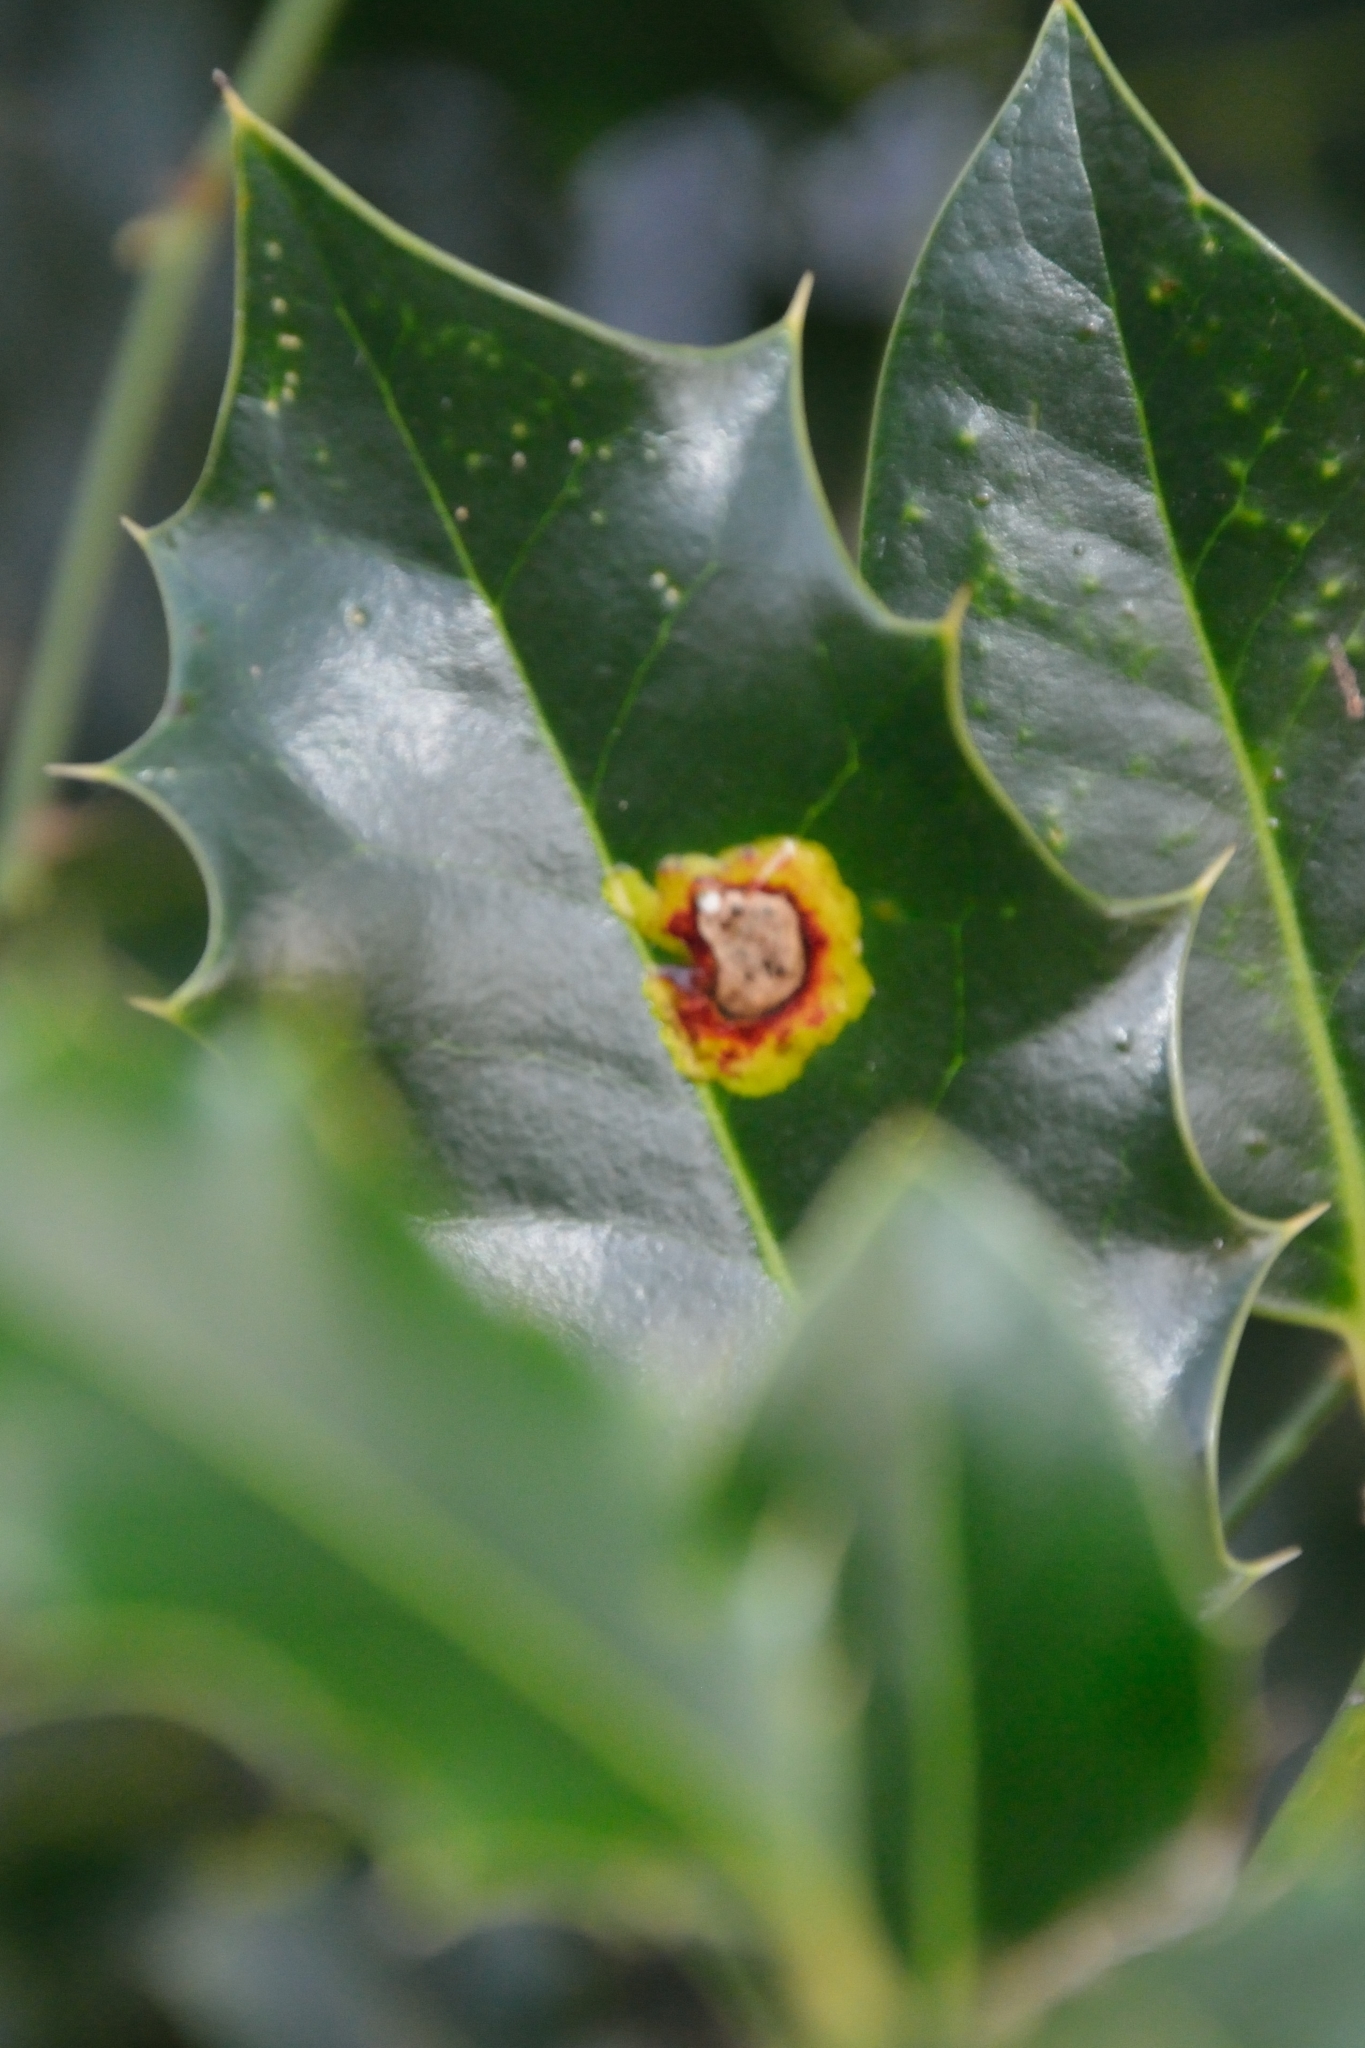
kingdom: Animalia
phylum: Arthropoda
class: Insecta
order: Diptera
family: Agromyzidae
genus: Phytomyza
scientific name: Phytomyza ilicis
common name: Holly leafminer
